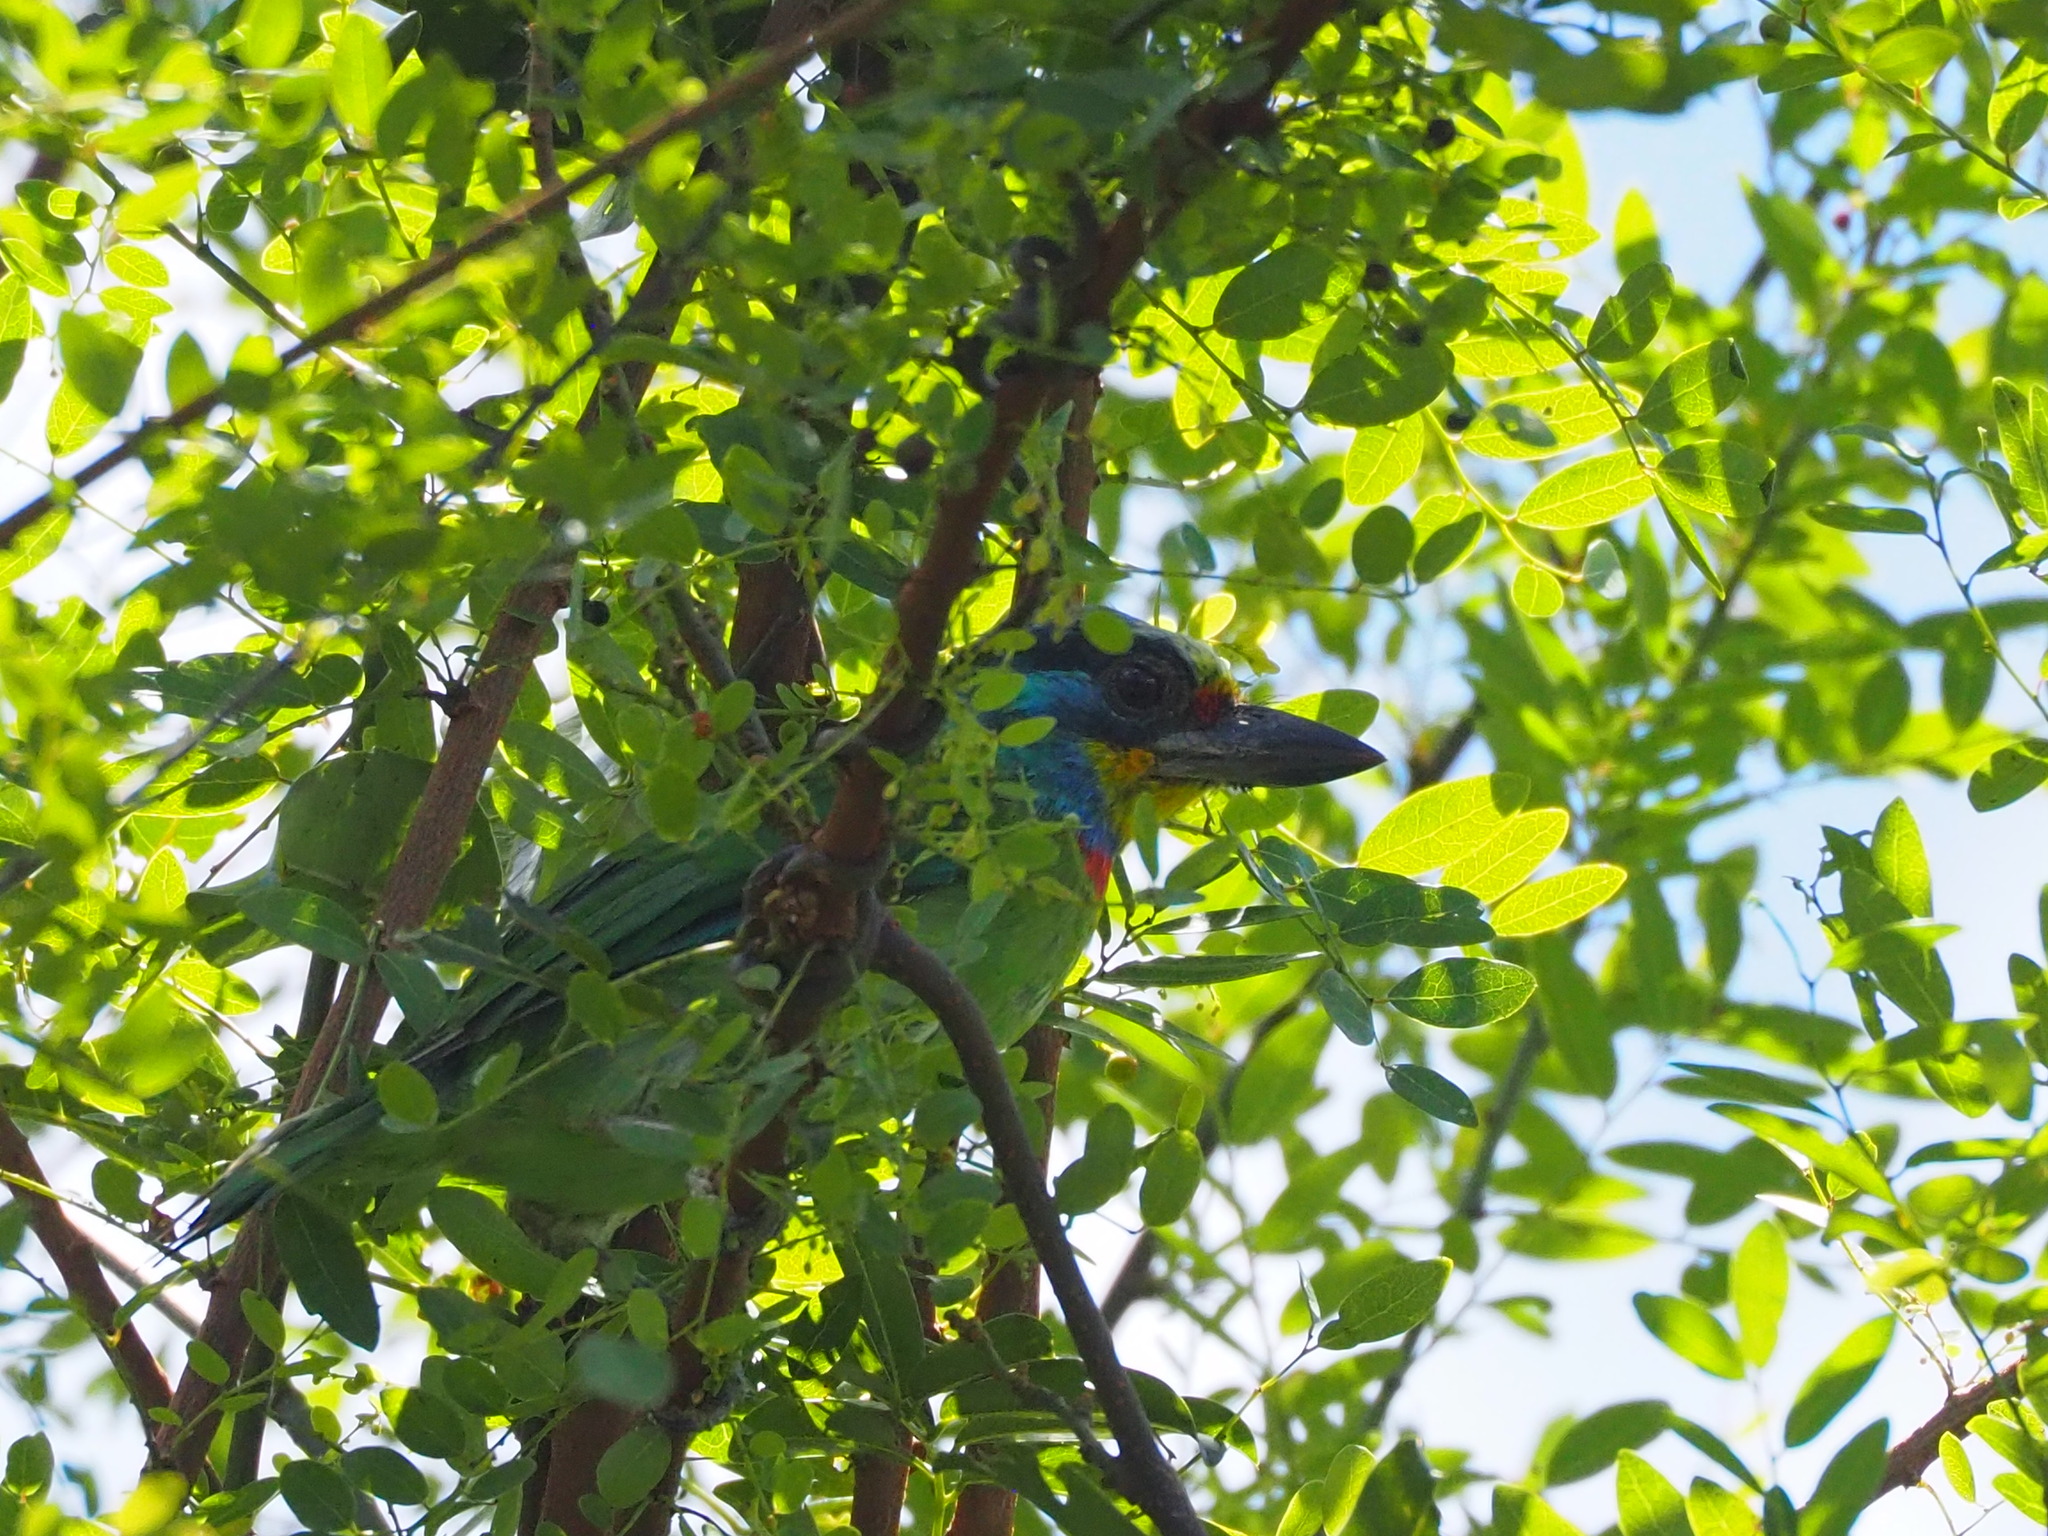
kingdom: Animalia
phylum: Chordata
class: Aves
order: Piciformes
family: Megalaimidae
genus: Psilopogon
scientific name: Psilopogon nuchalis
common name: Taiwan barbet
